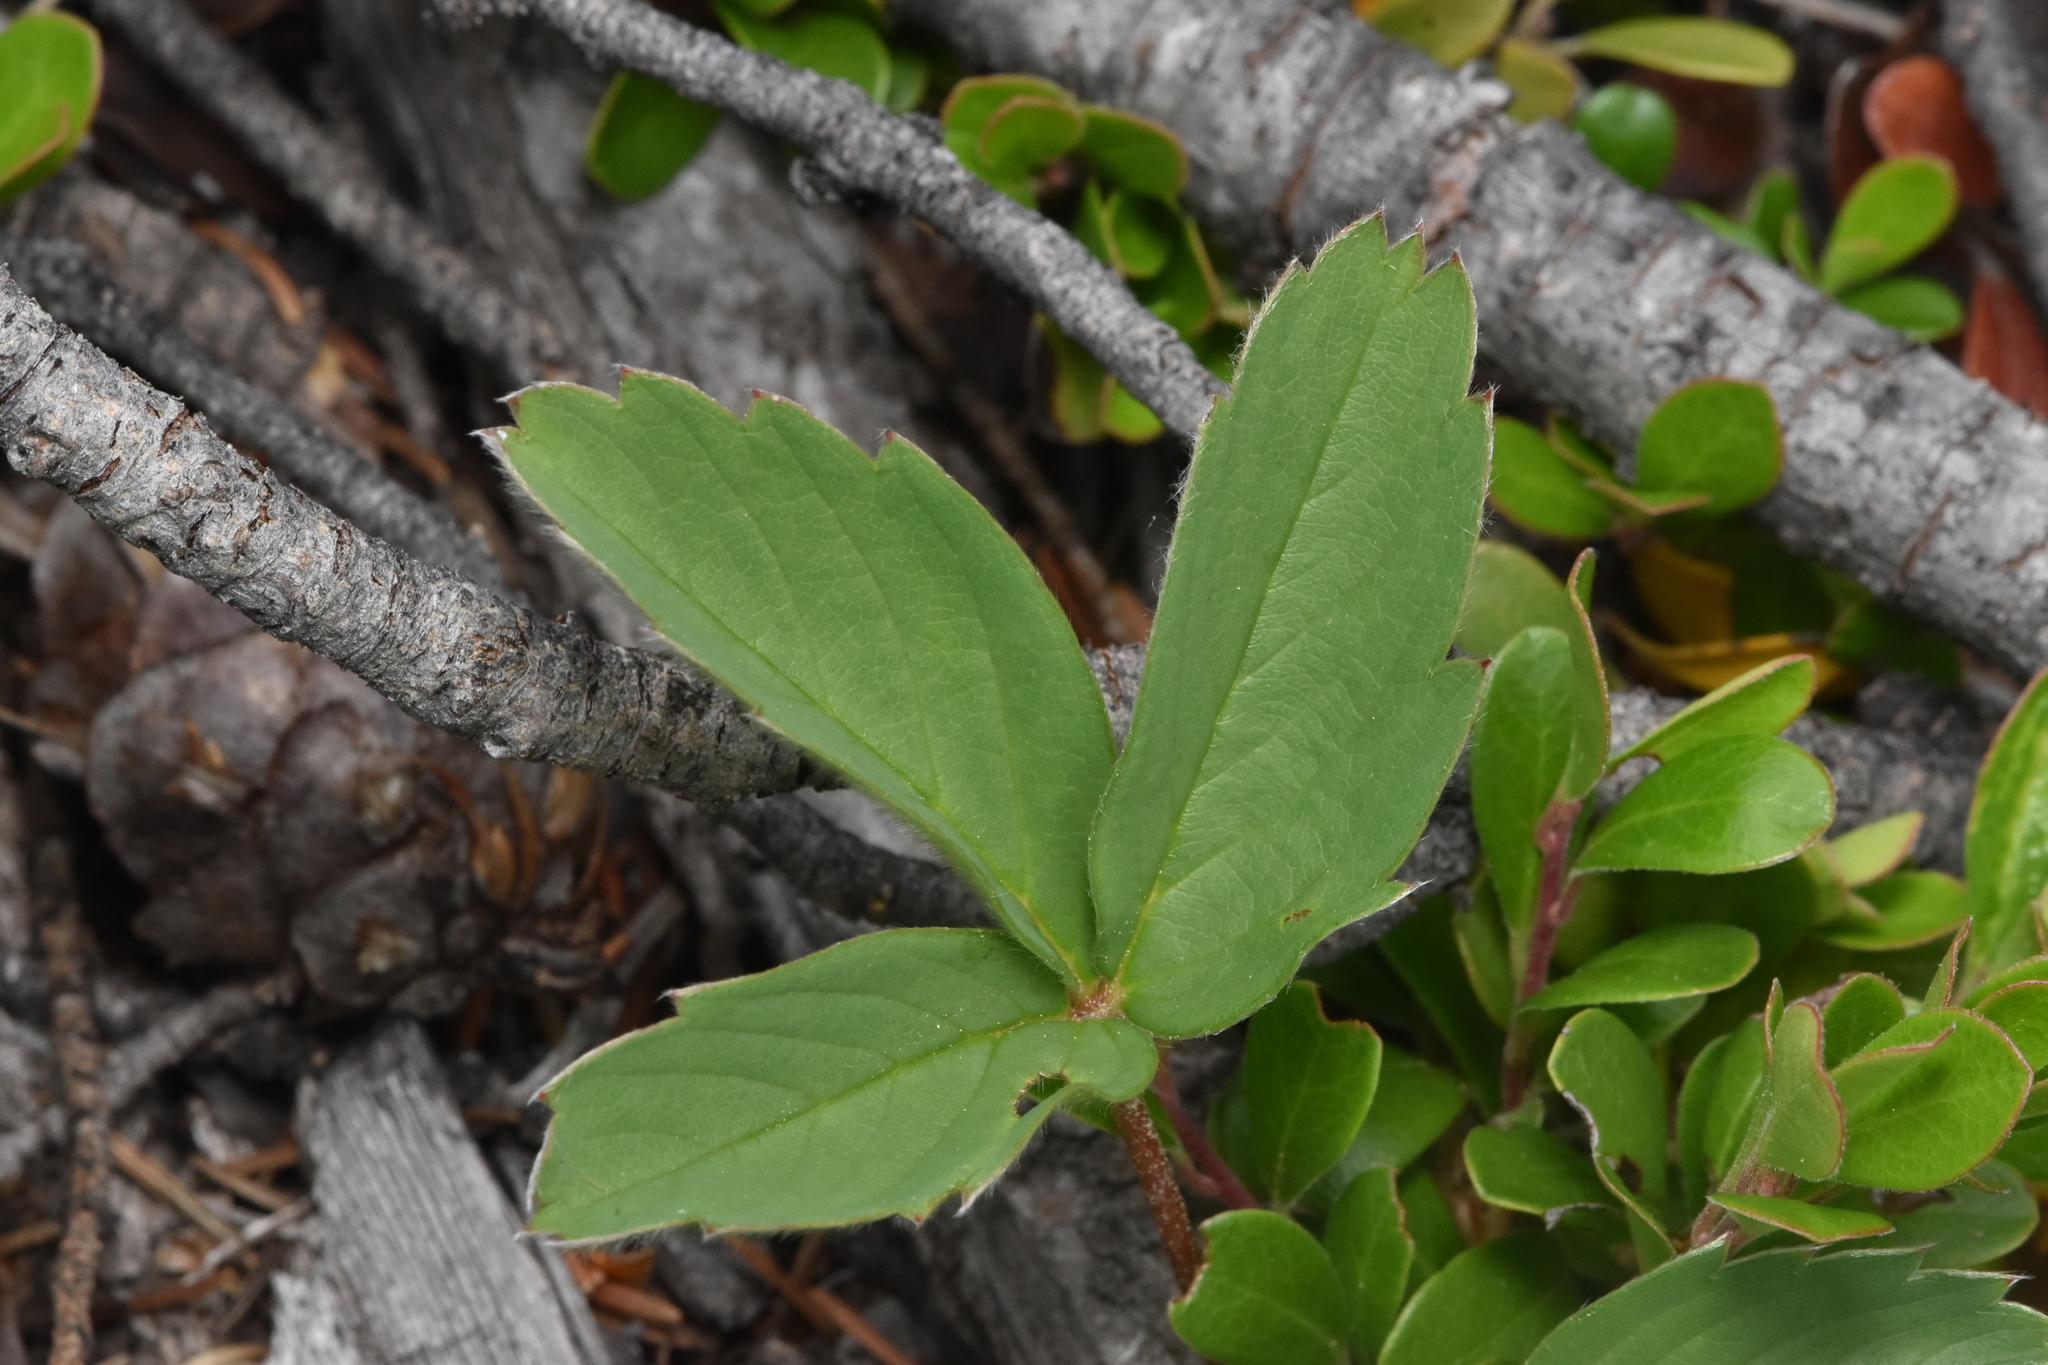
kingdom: Plantae
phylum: Tracheophyta
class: Magnoliopsida
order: Rosales
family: Rosaceae
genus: Fragaria
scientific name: Fragaria virginiana
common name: Thickleaved wild strawberry
